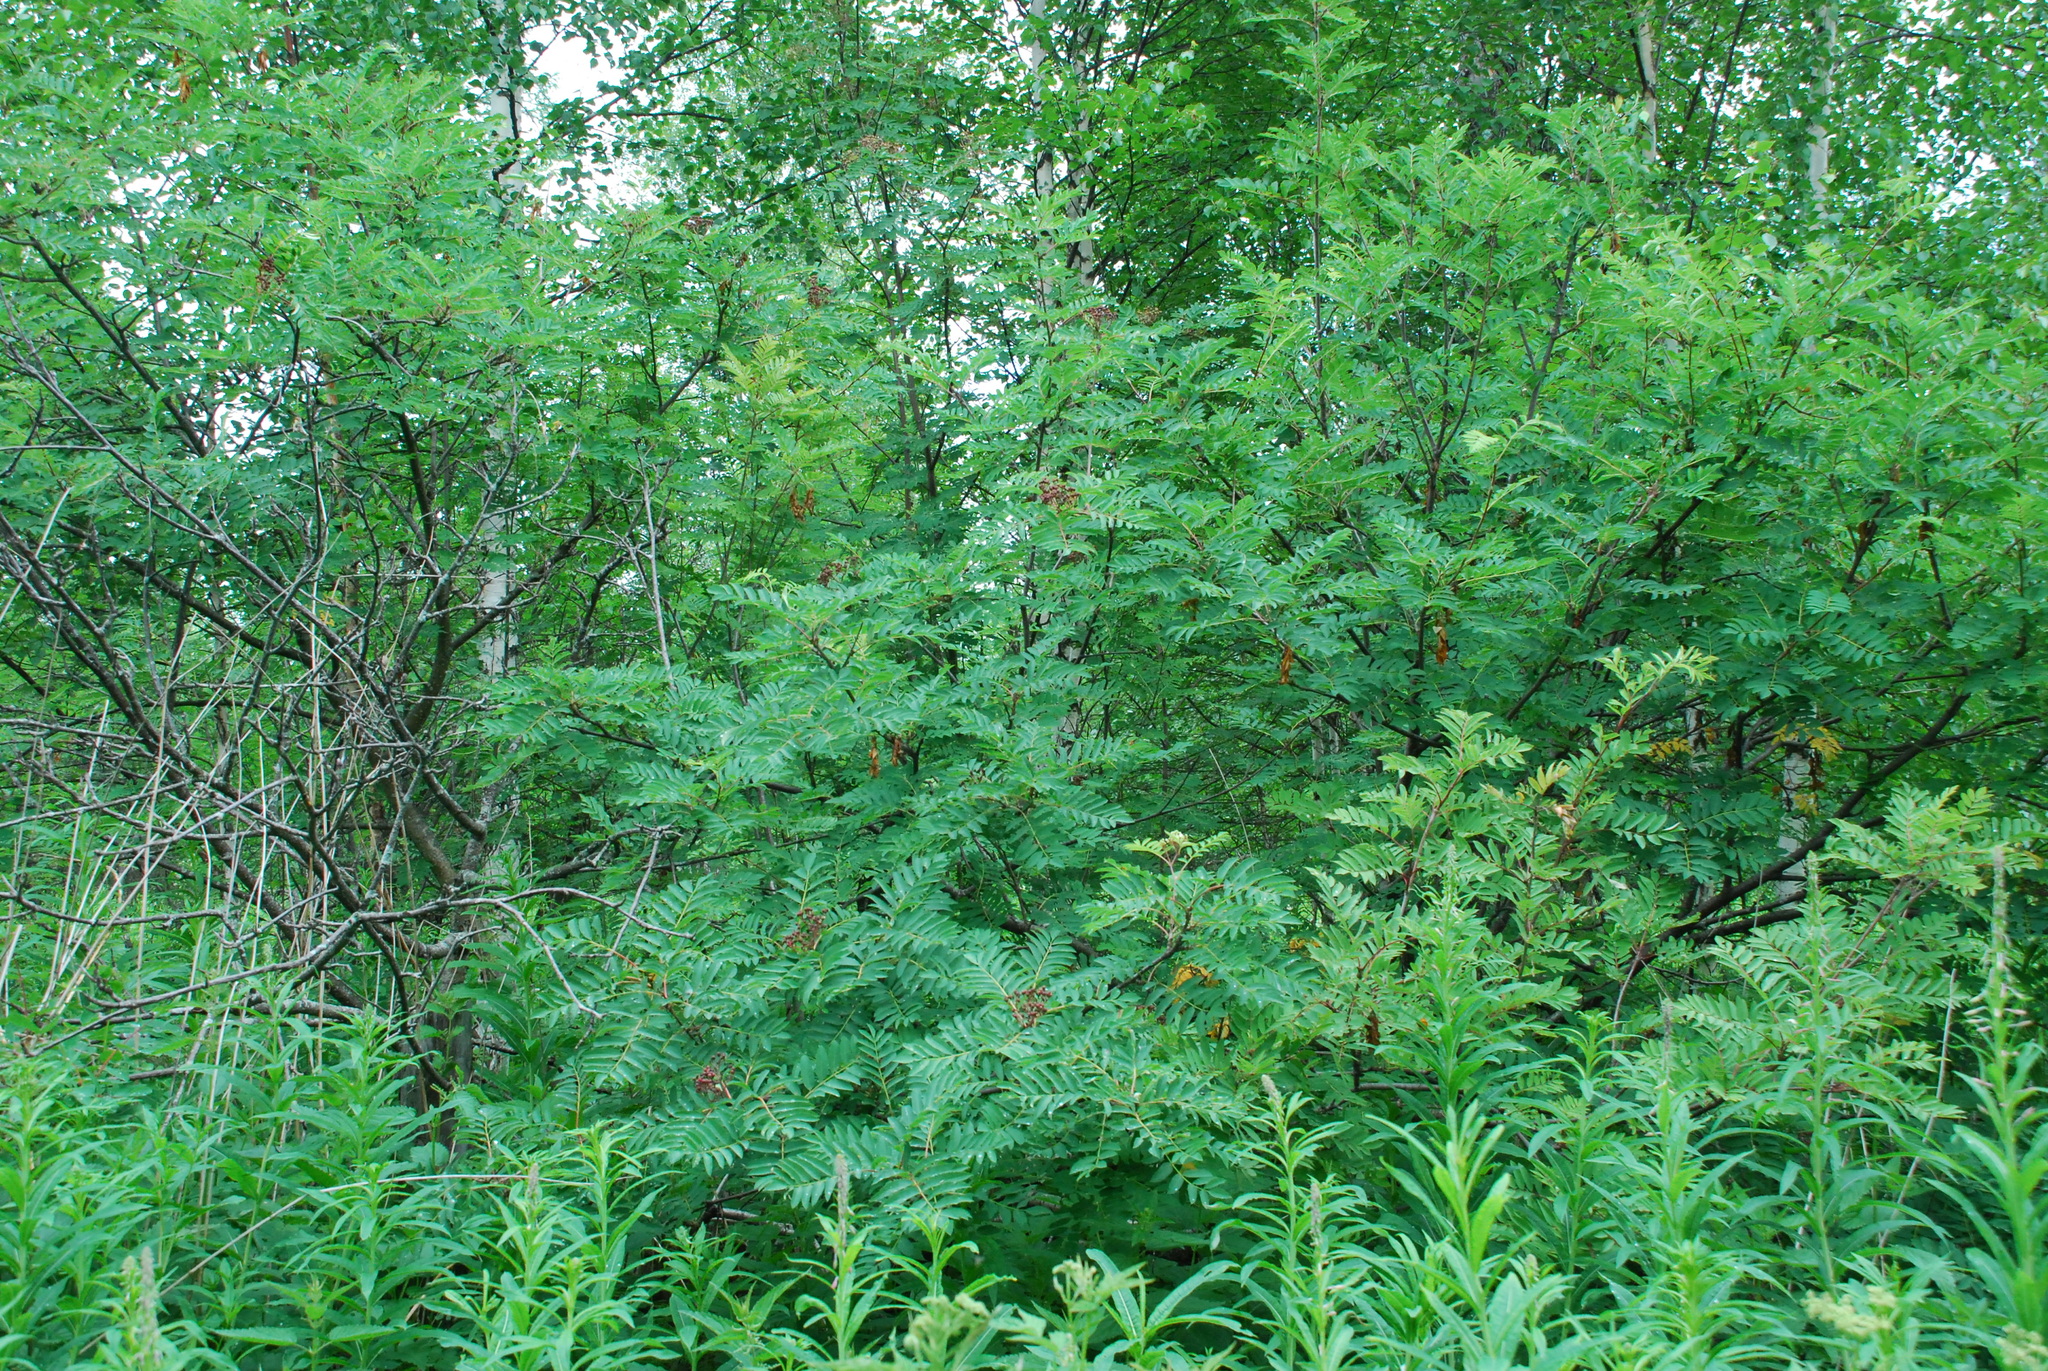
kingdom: Plantae
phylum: Tracheophyta
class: Magnoliopsida
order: Rosales
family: Rosaceae
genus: Sorbus
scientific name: Sorbus aucuparia
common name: Rowan
